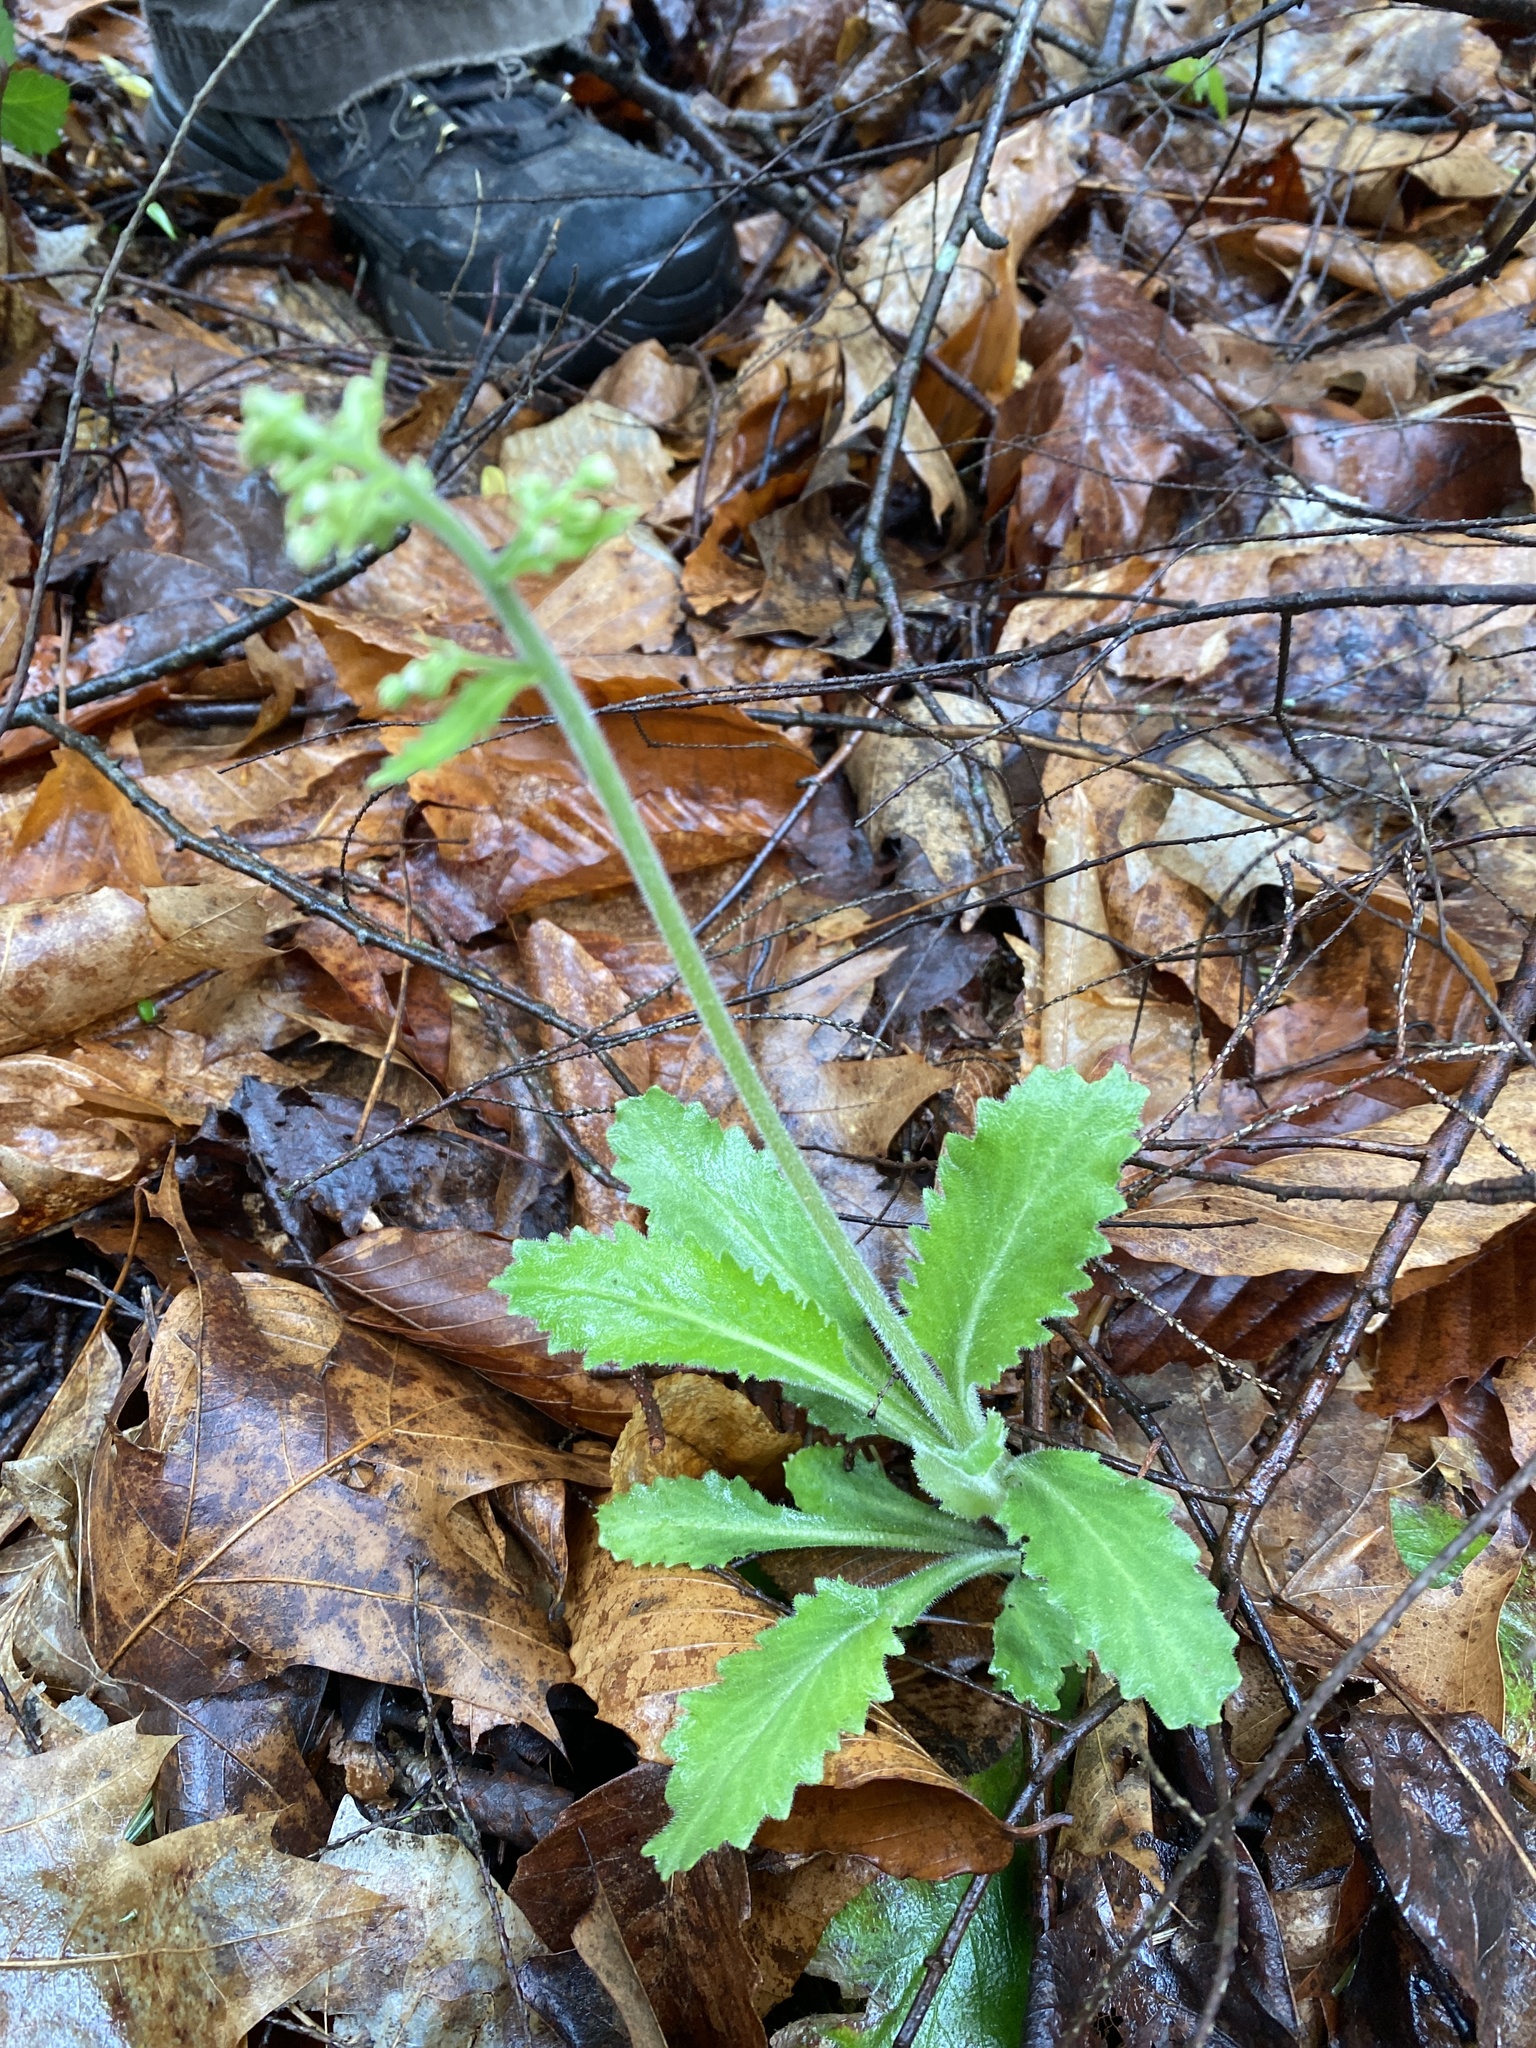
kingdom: Plantae
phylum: Tracheophyta
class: Magnoliopsida
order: Saxifragales
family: Saxifragaceae
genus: Micranthes
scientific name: Micranthes micranthidifolia
